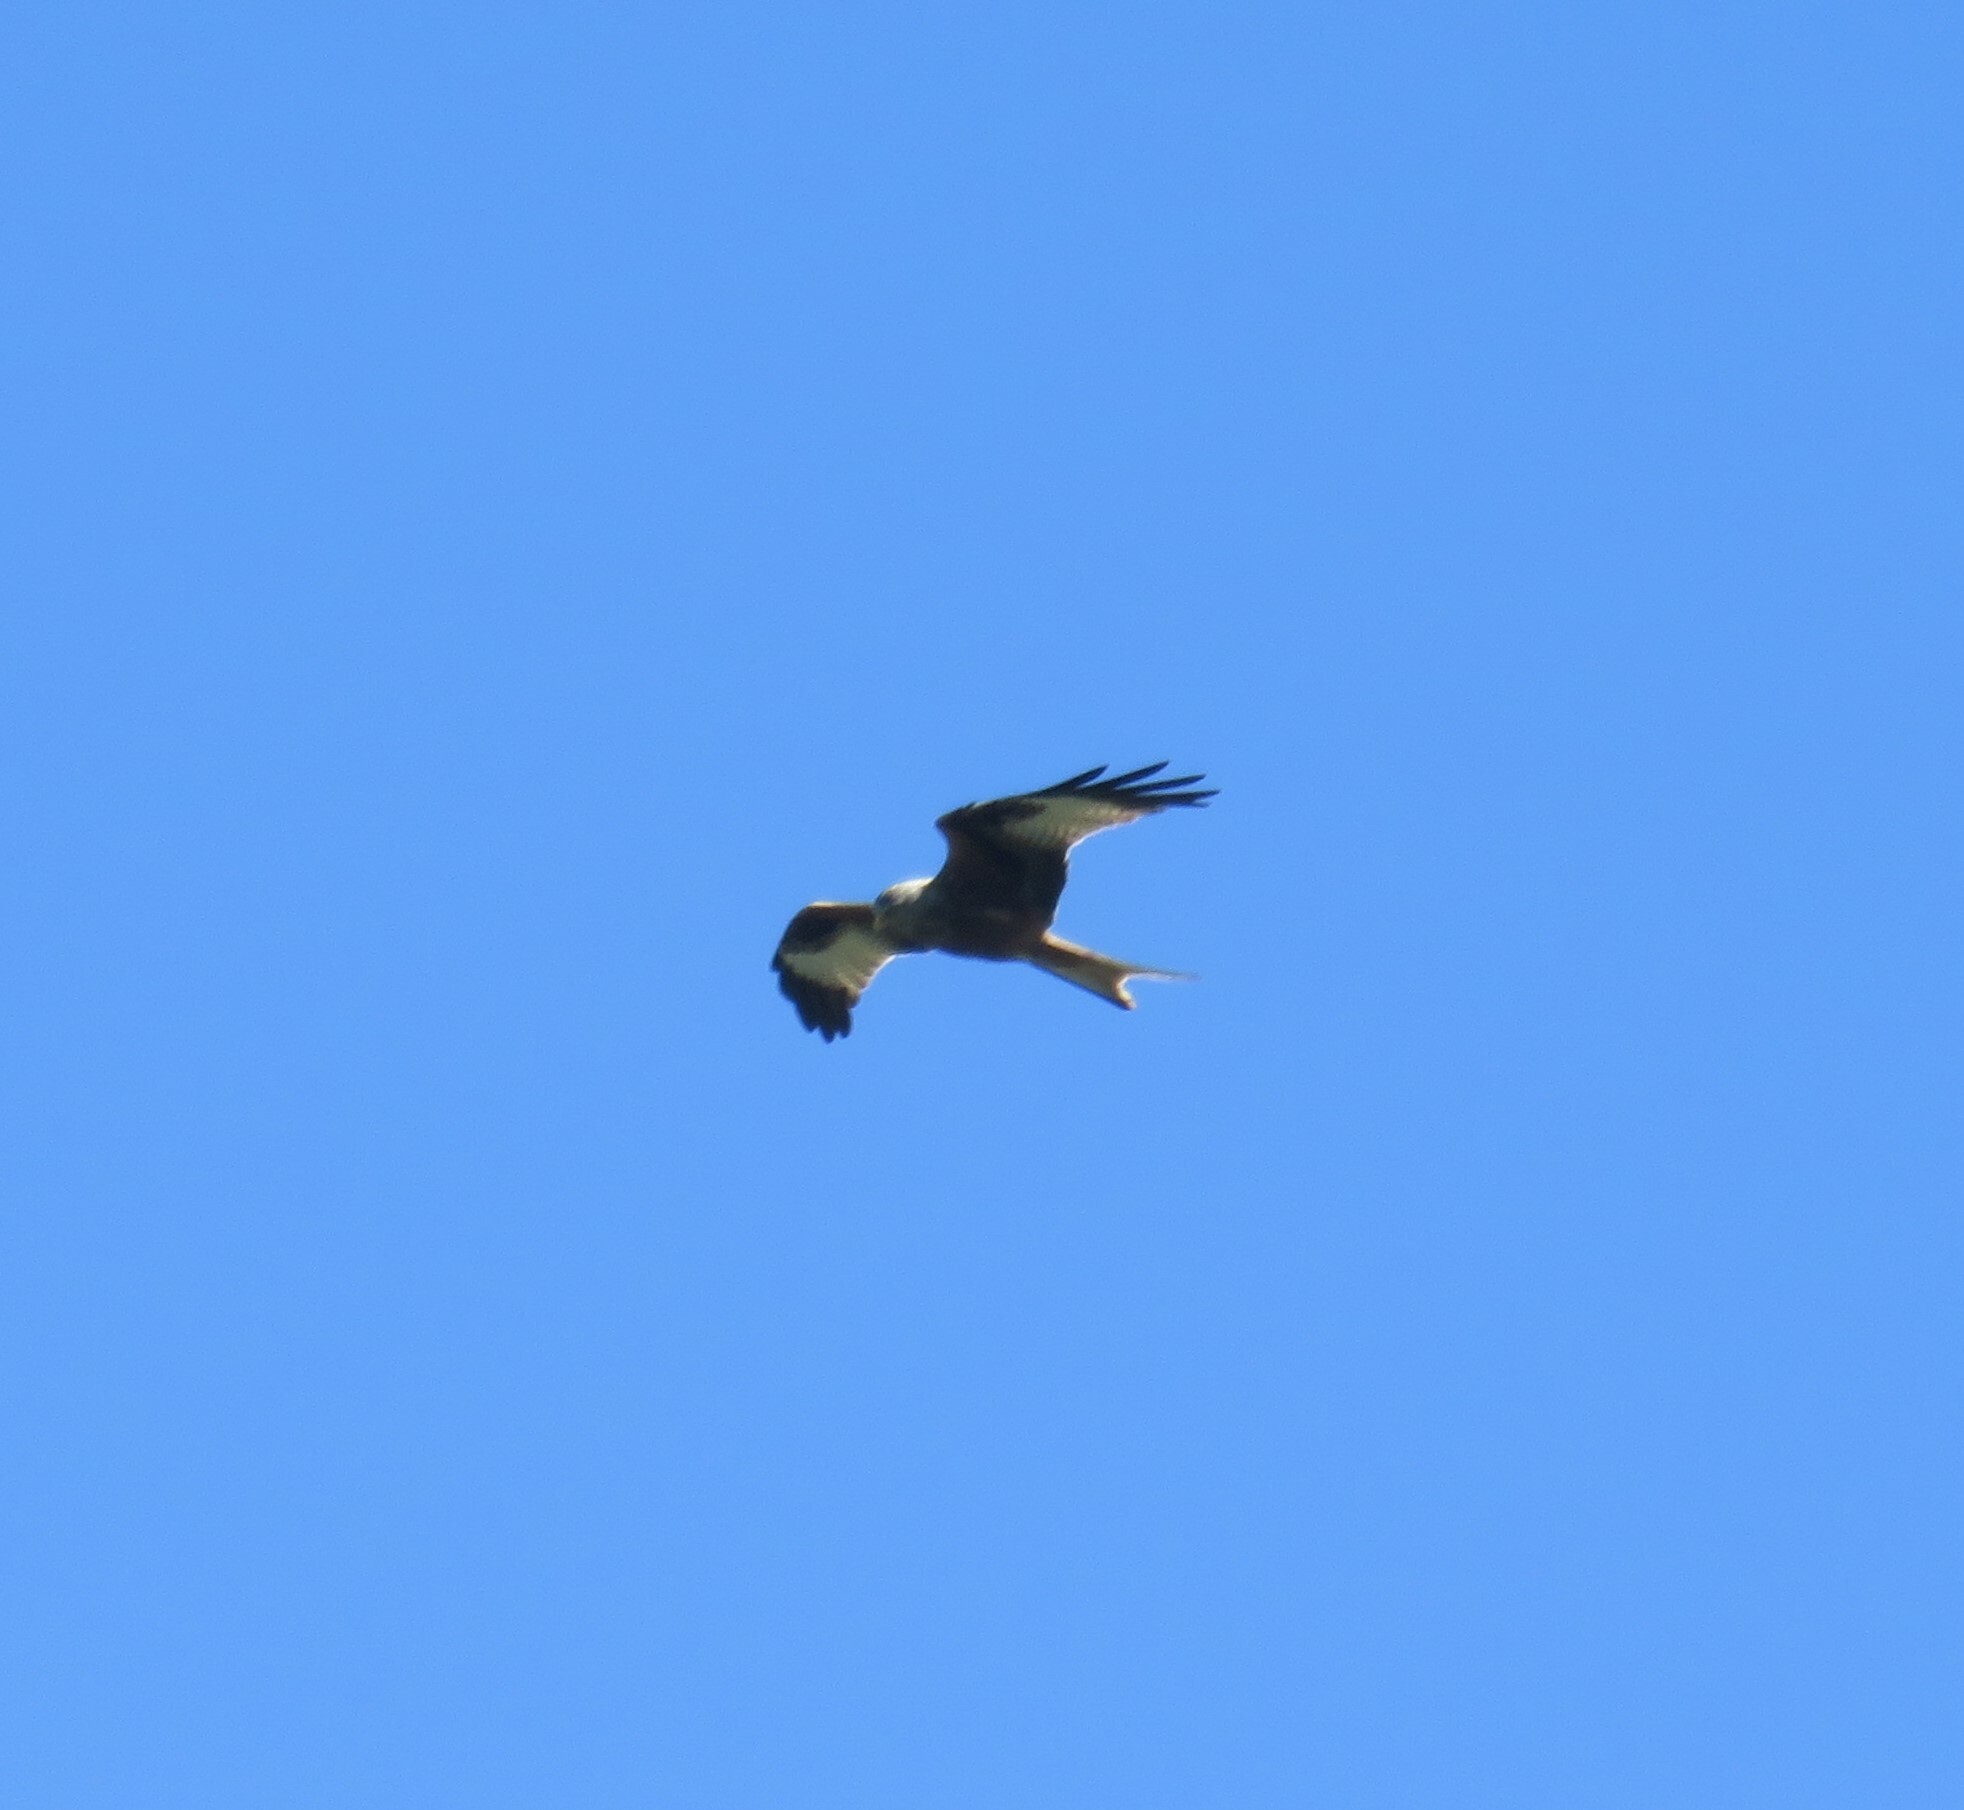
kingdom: Animalia
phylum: Chordata
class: Aves
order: Accipitriformes
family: Accipitridae
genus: Milvus
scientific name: Milvus milvus
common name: Red kite
